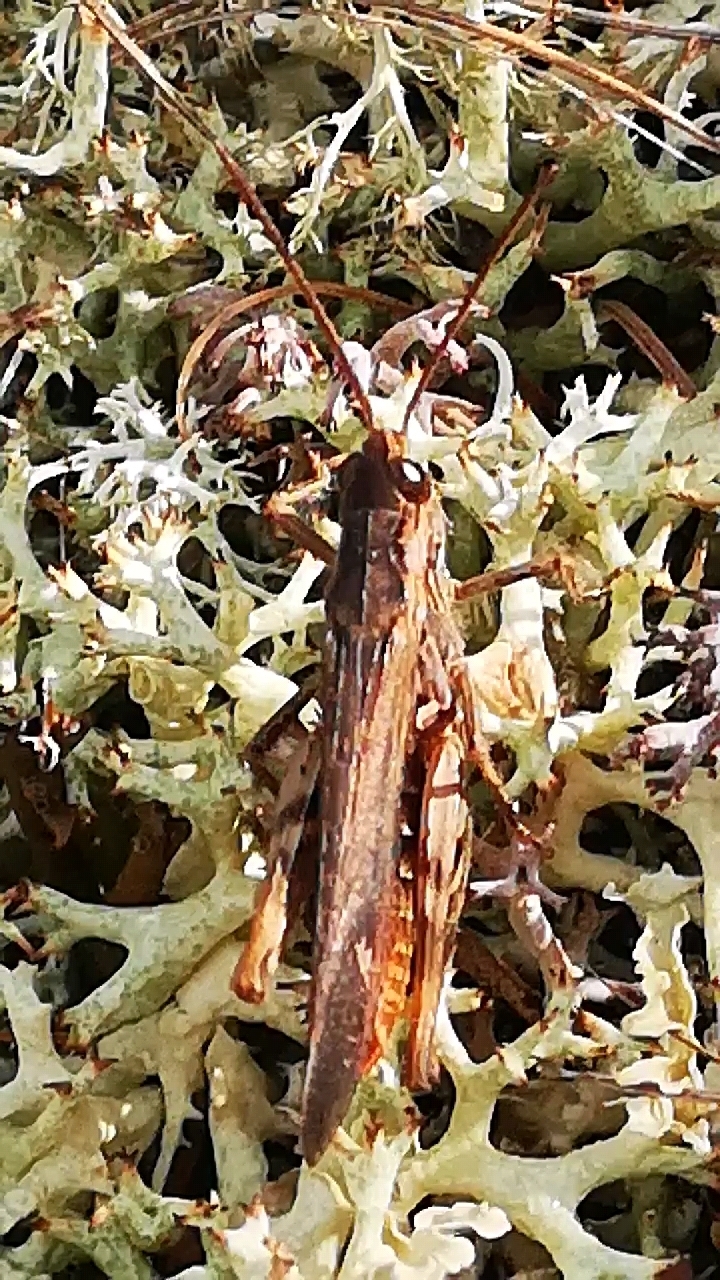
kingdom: Animalia
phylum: Arthropoda
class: Insecta
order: Orthoptera
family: Acrididae
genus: Chorthippus
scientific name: Chorthippus brunneus
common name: Field grasshopper
